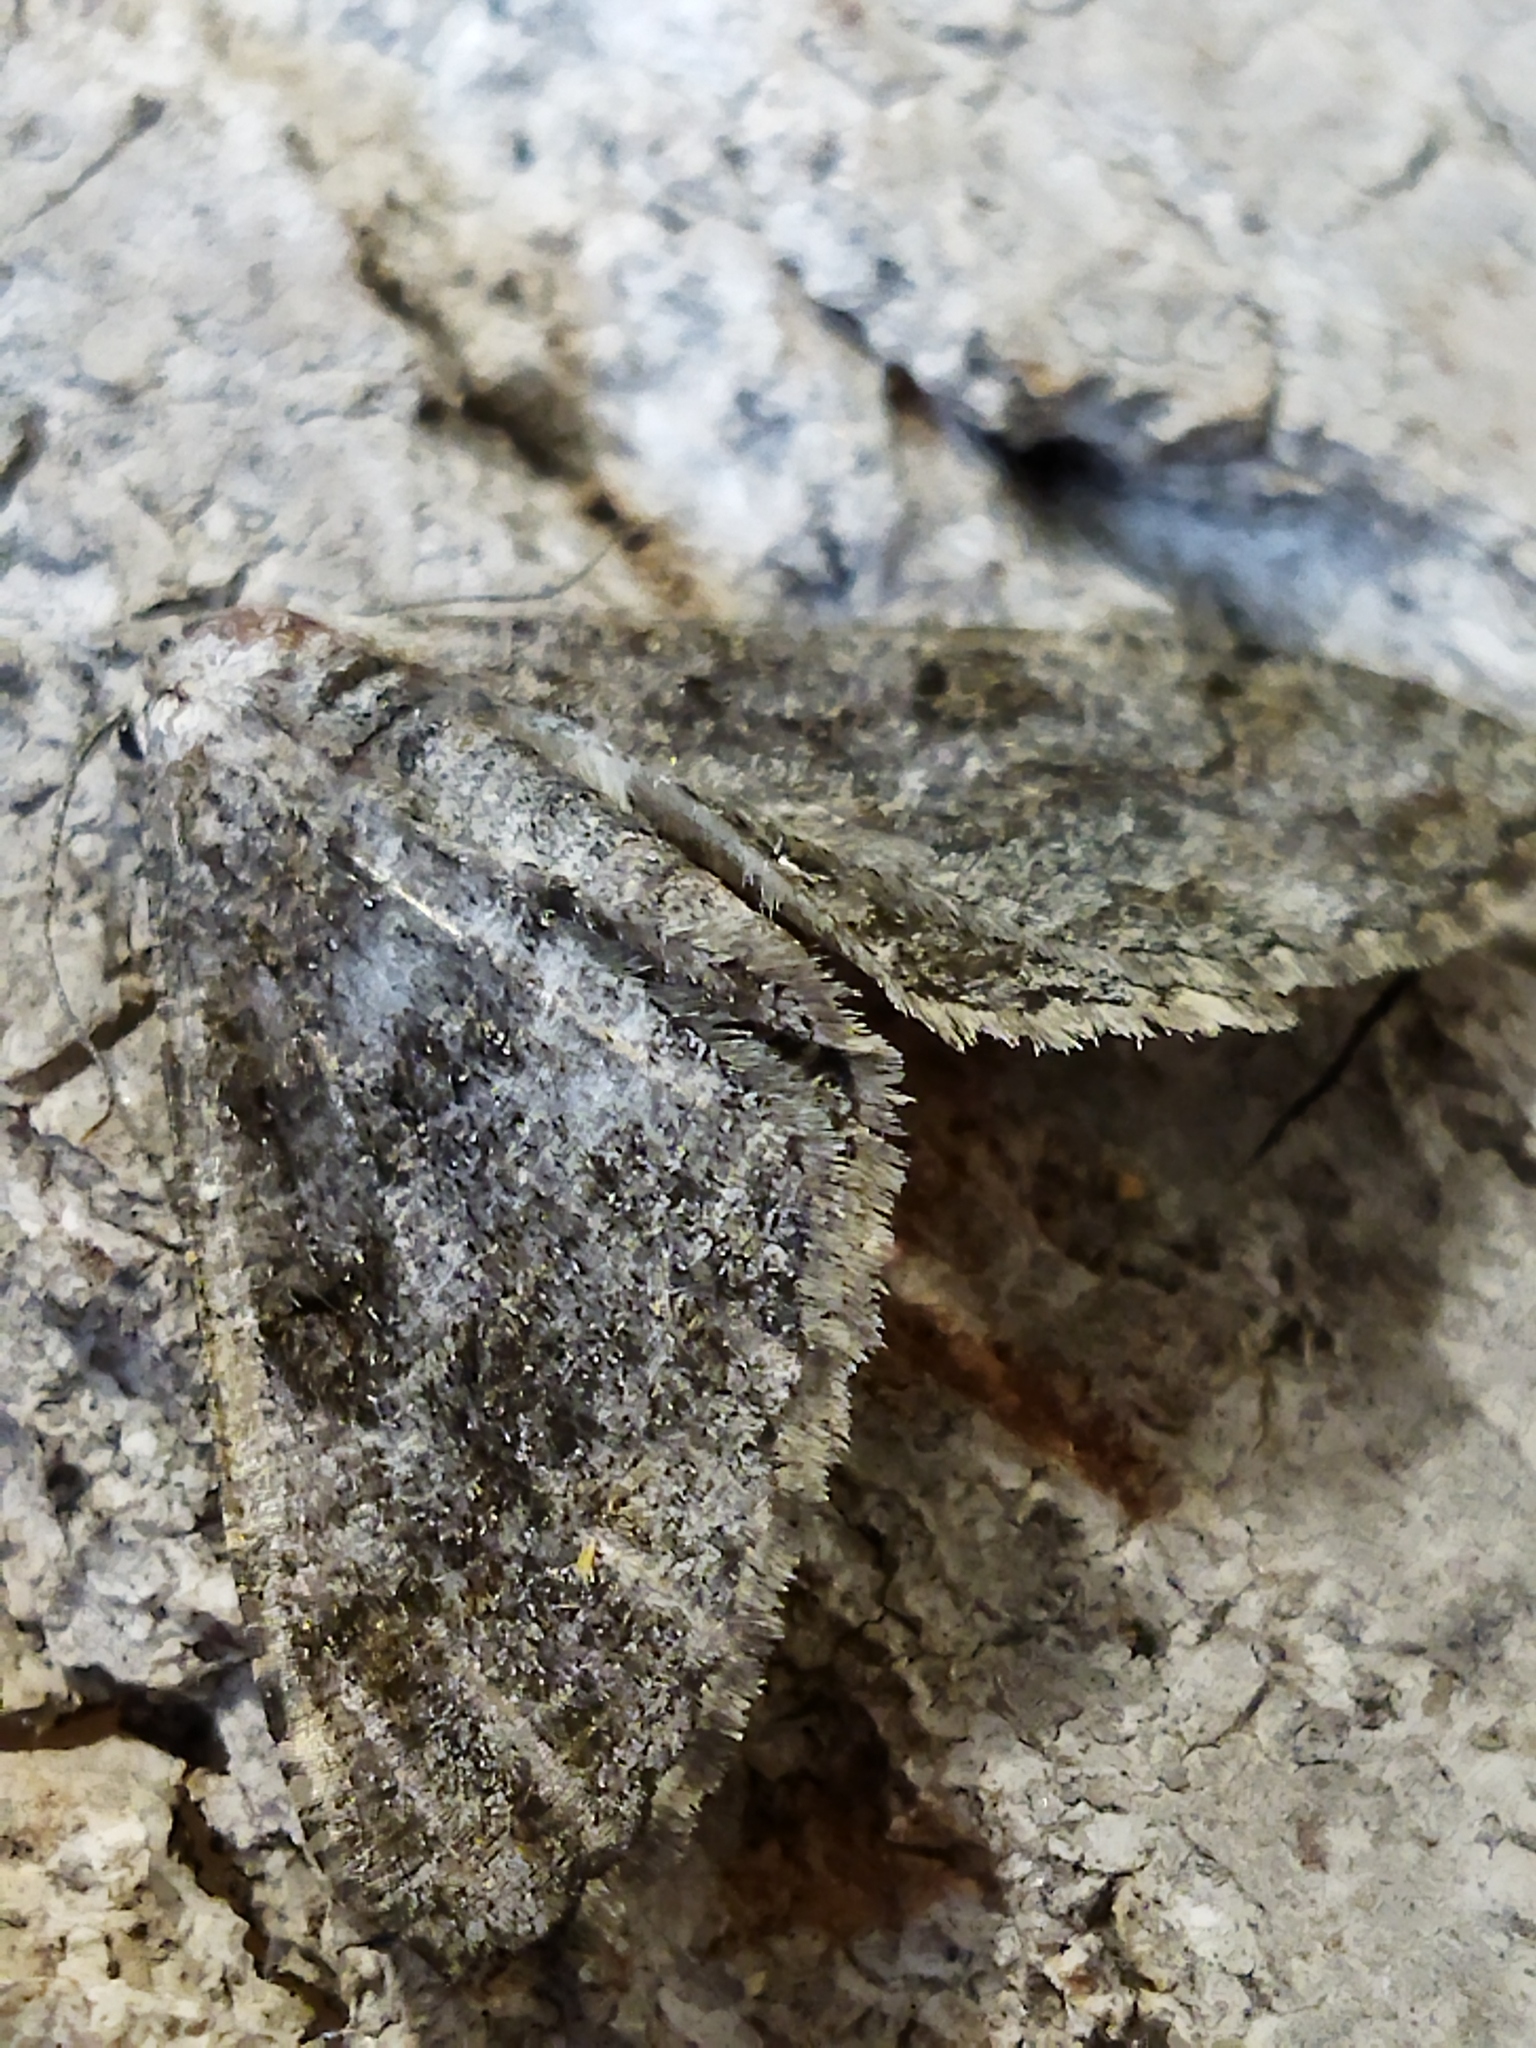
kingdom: Animalia
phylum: Arthropoda
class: Insecta
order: Lepidoptera
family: Geometridae
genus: Alcis
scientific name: Alcis repandata
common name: Mottled beauty
